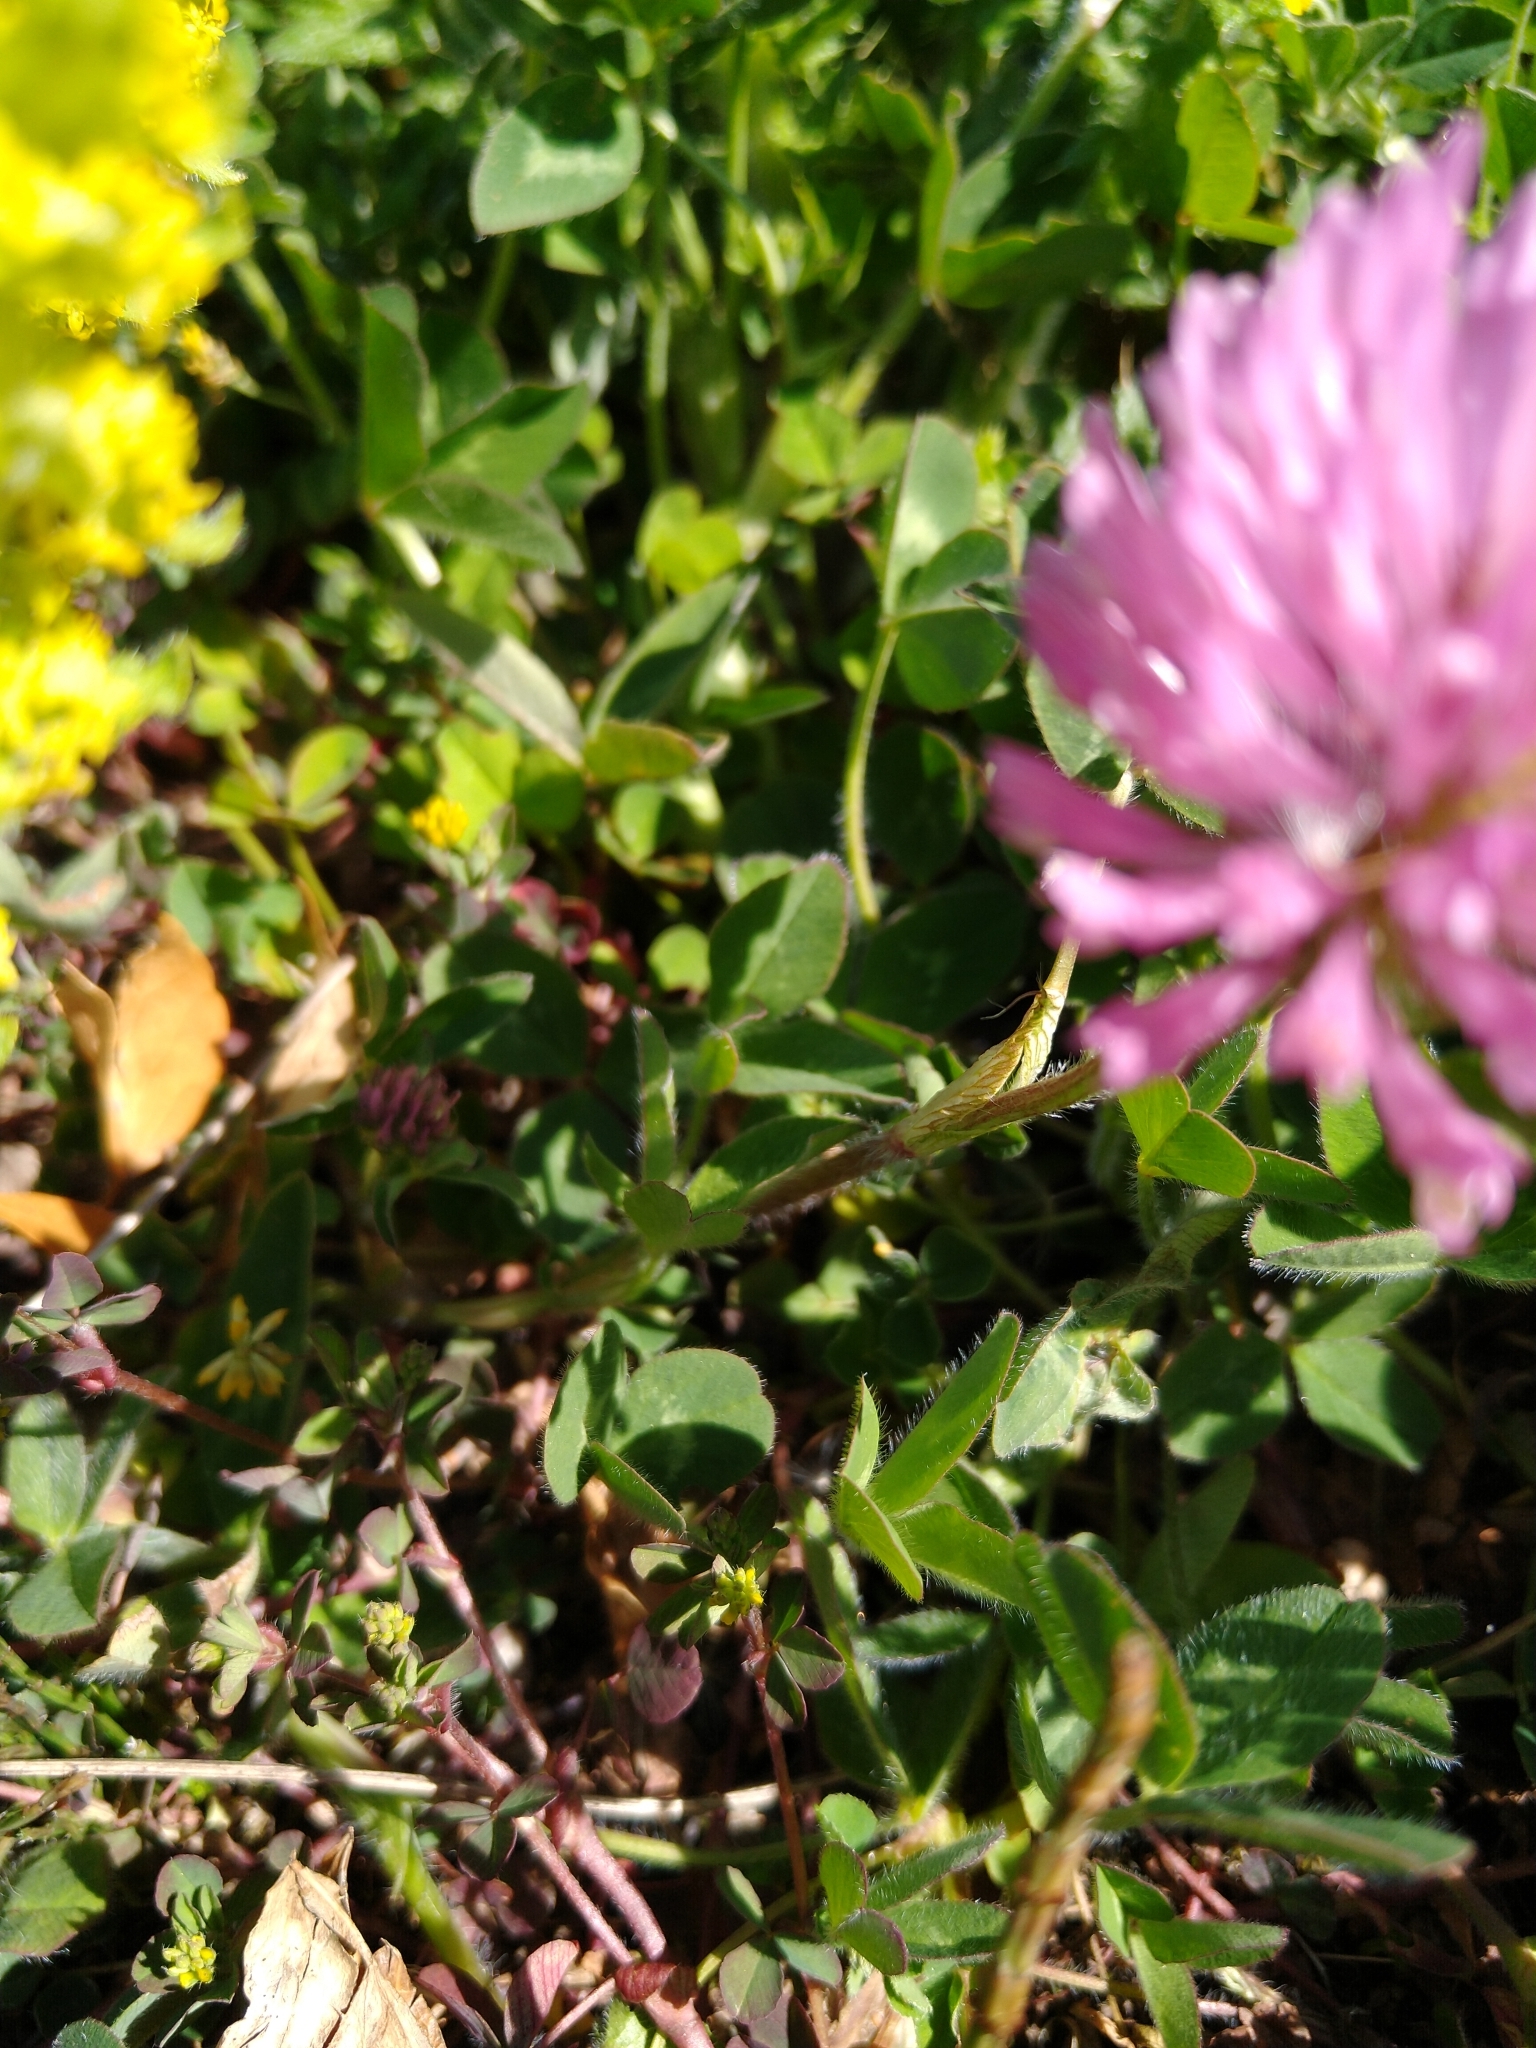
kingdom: Plantae
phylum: Tracheophyta
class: Magnoliopsida
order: Fabales
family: Fabaceae
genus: Trifolium
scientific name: Trifolium pratense
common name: Red clover
